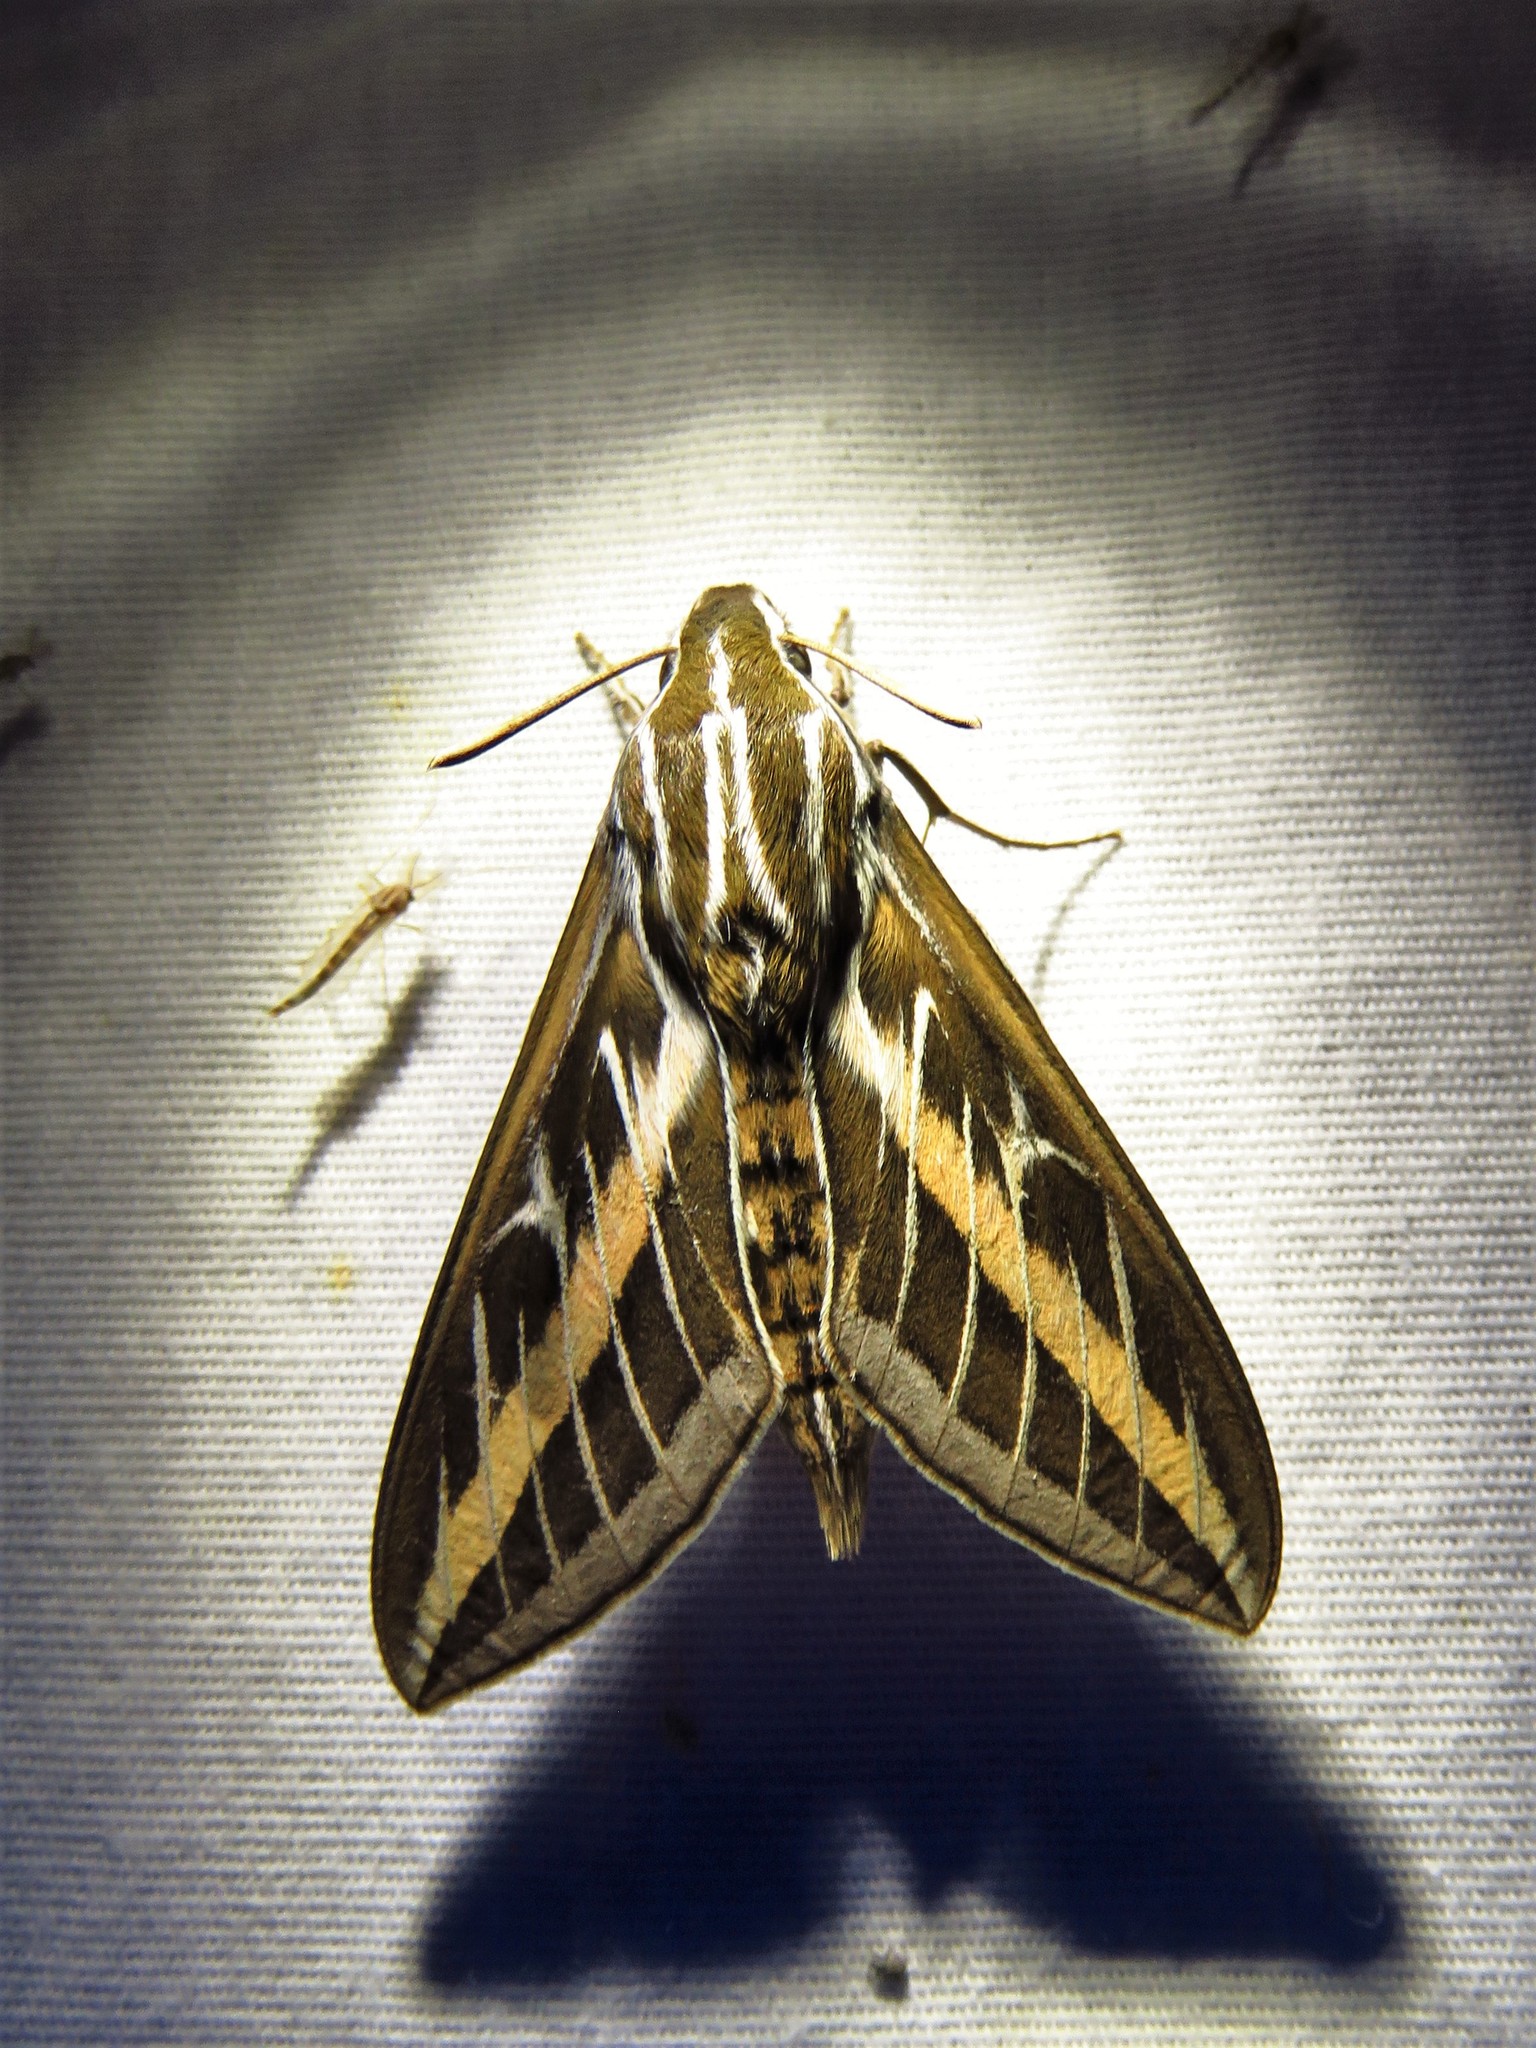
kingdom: Animalia
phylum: Arthropoda
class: Insecta
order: Lepidoptera
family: Sphingidae
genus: Hyles
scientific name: Hyles lineata
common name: White-lined sphinx
